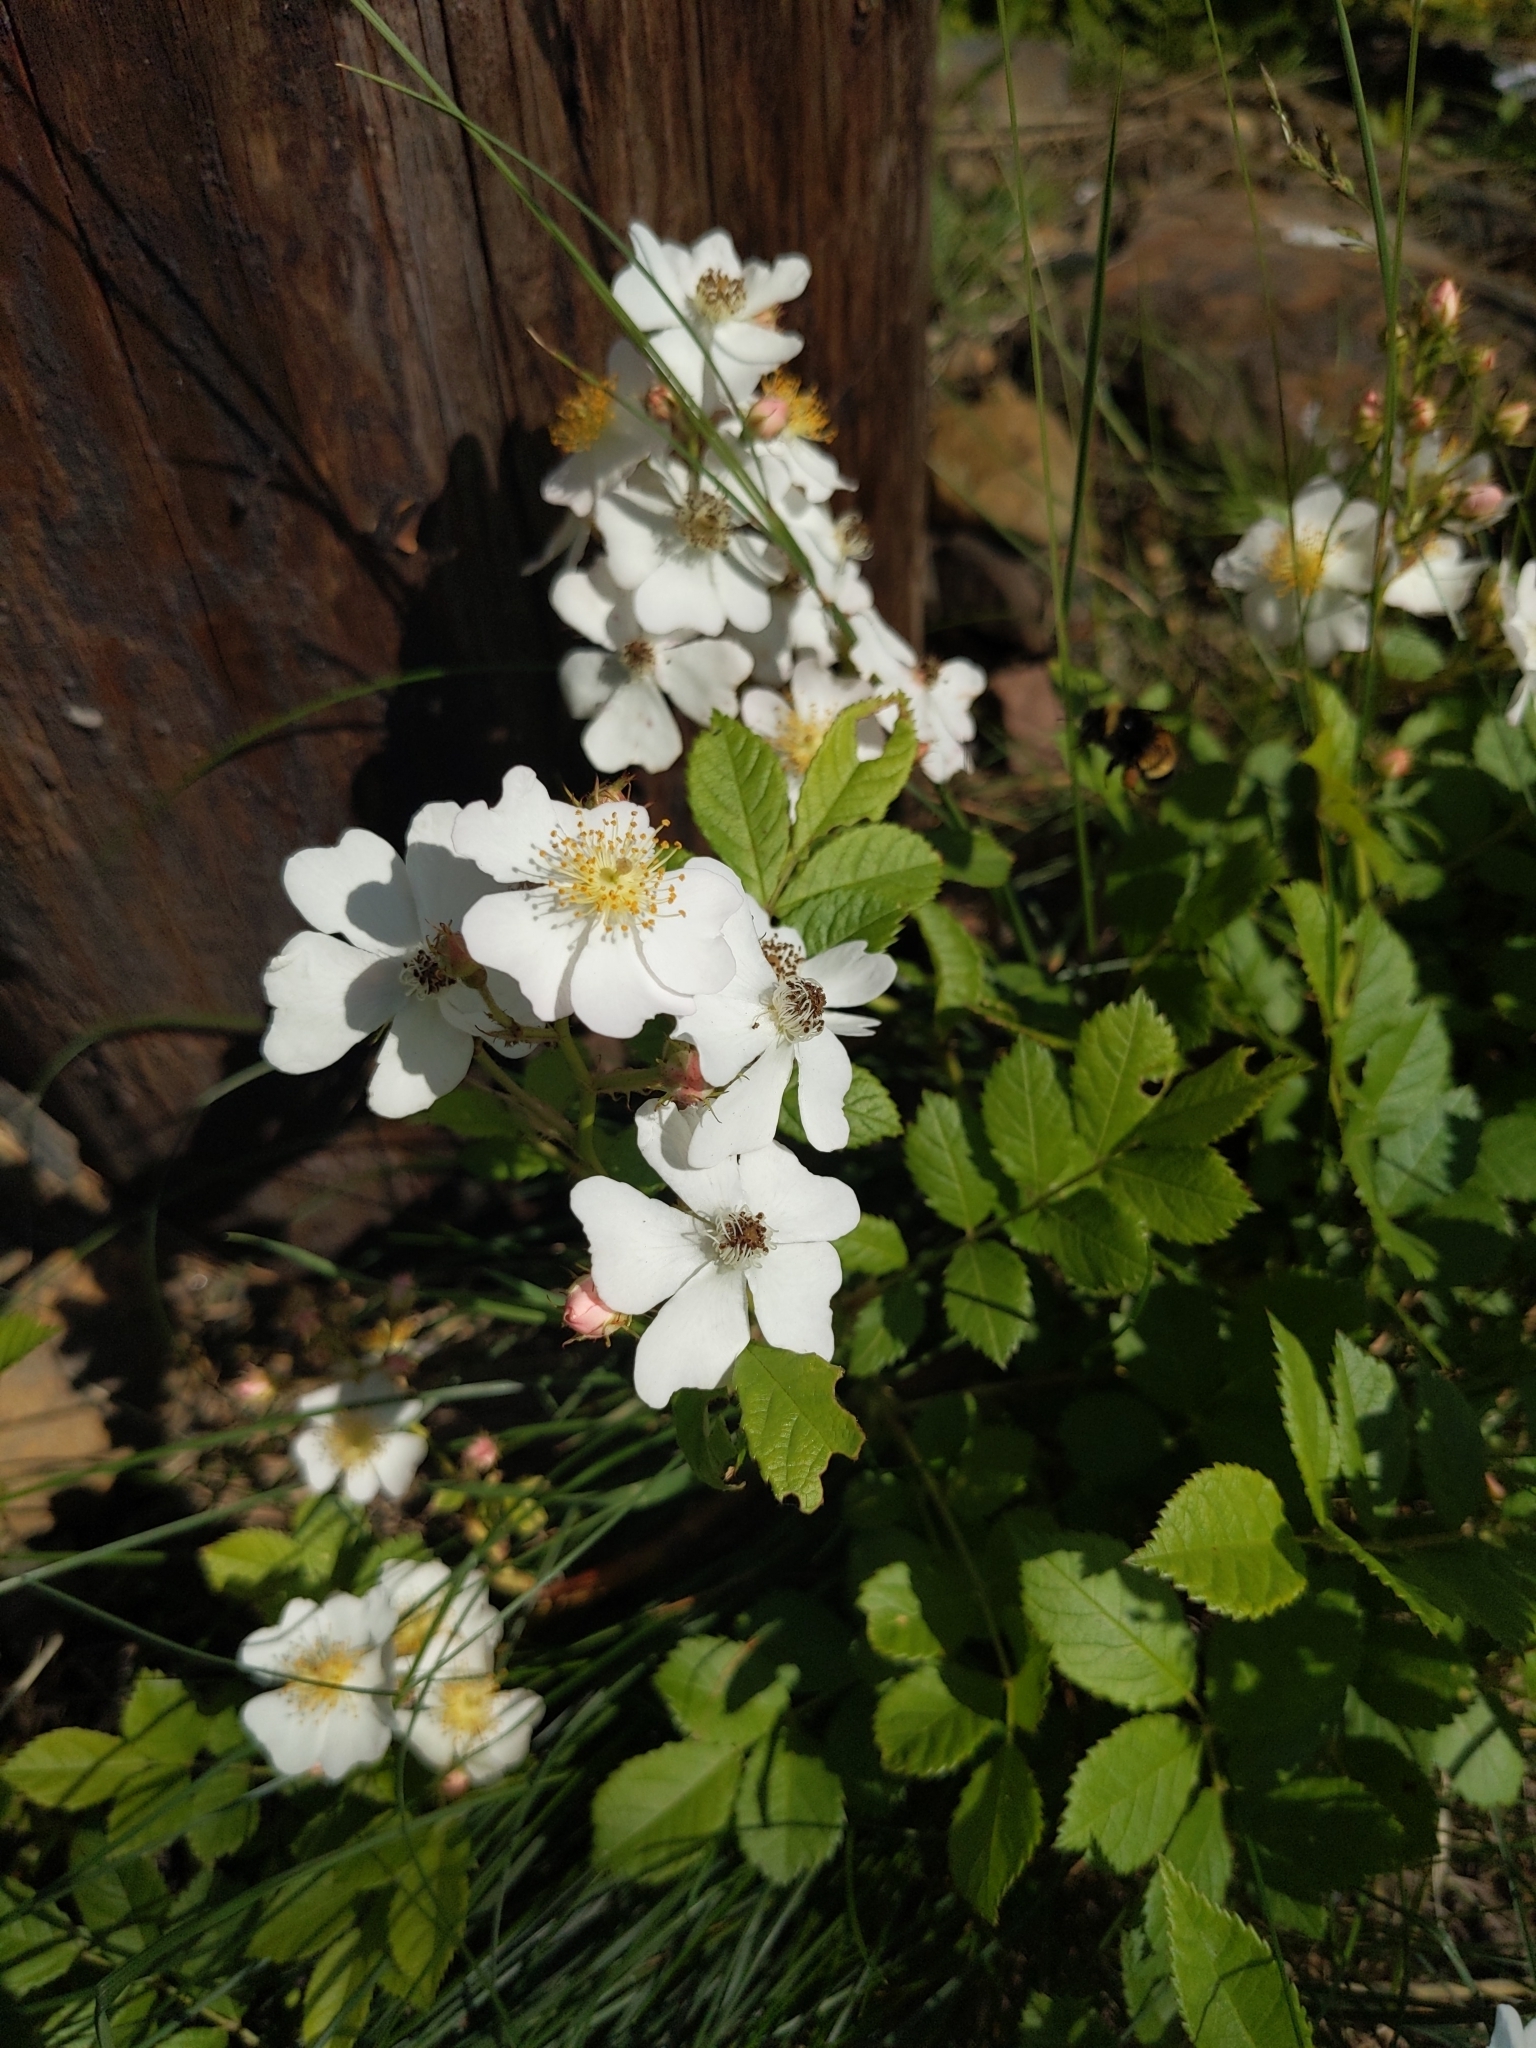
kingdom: Plantae
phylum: Tracheophyta
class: Magnoliopsida
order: Rosales
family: Rosaceae
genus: Rosa
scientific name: Rosa multiflora
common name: Multiflora rose
